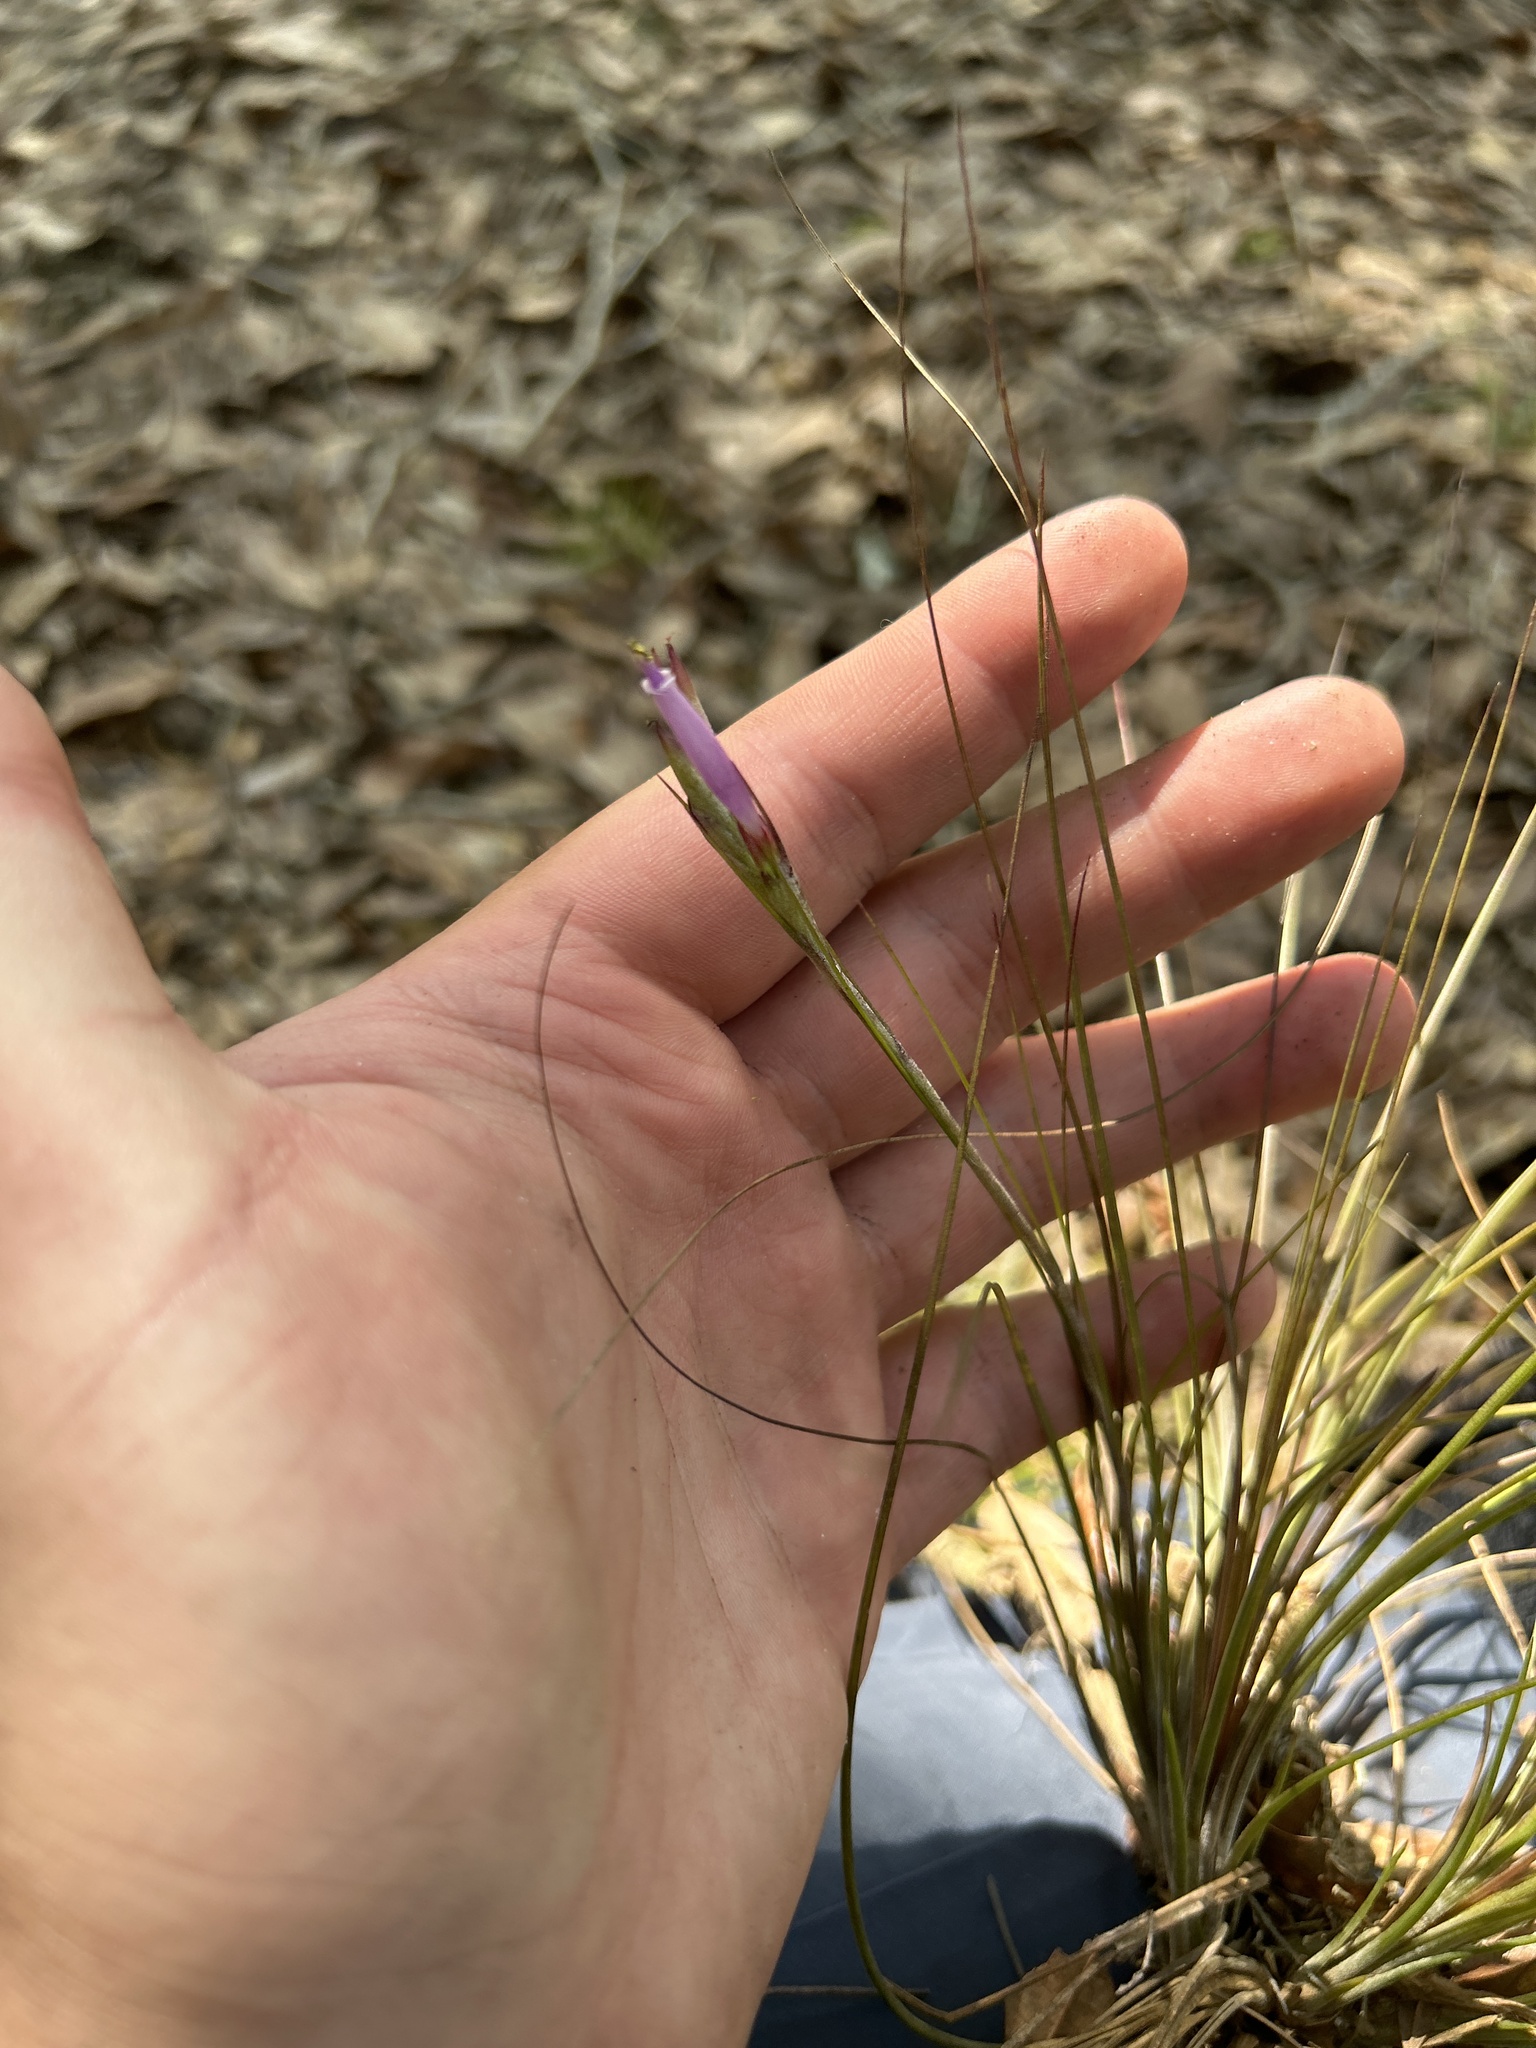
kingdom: Plantae
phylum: Tracheophyta
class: Liliopsida
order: Poales
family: Bromeliaceae
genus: Tillandsia
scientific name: Tillandsia setacea
